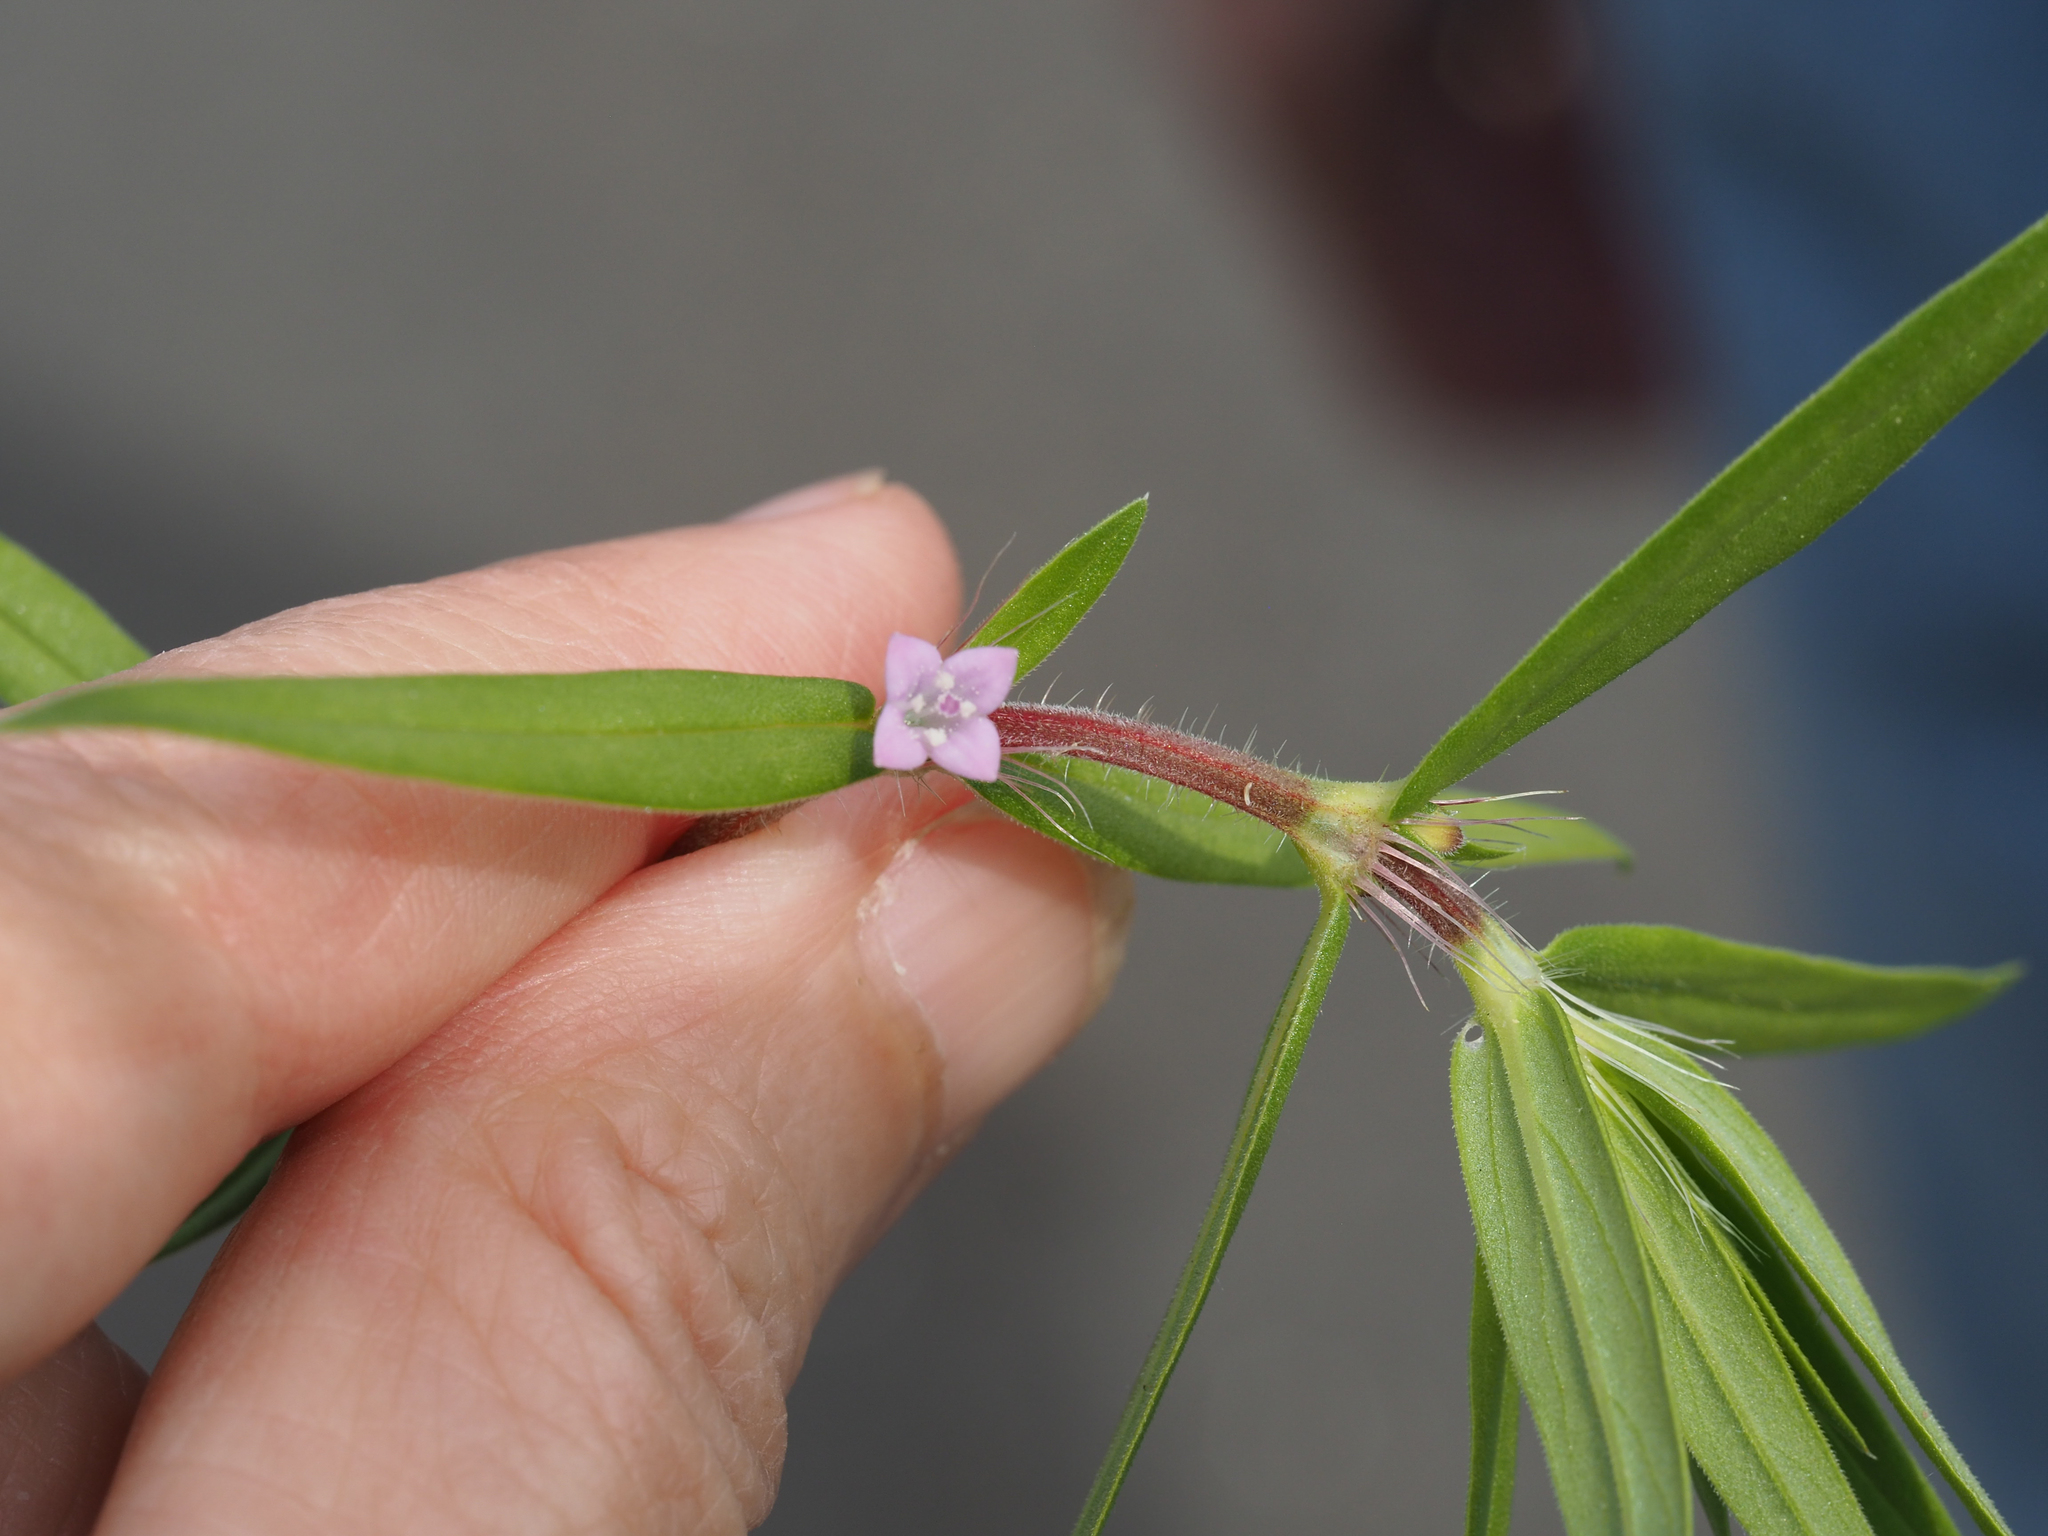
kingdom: Plantae
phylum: Tracheophyta
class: Magnoliopsida
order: Gentianales
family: Rubiaceae
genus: Hexasepalum
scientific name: Hexasepalum teres
